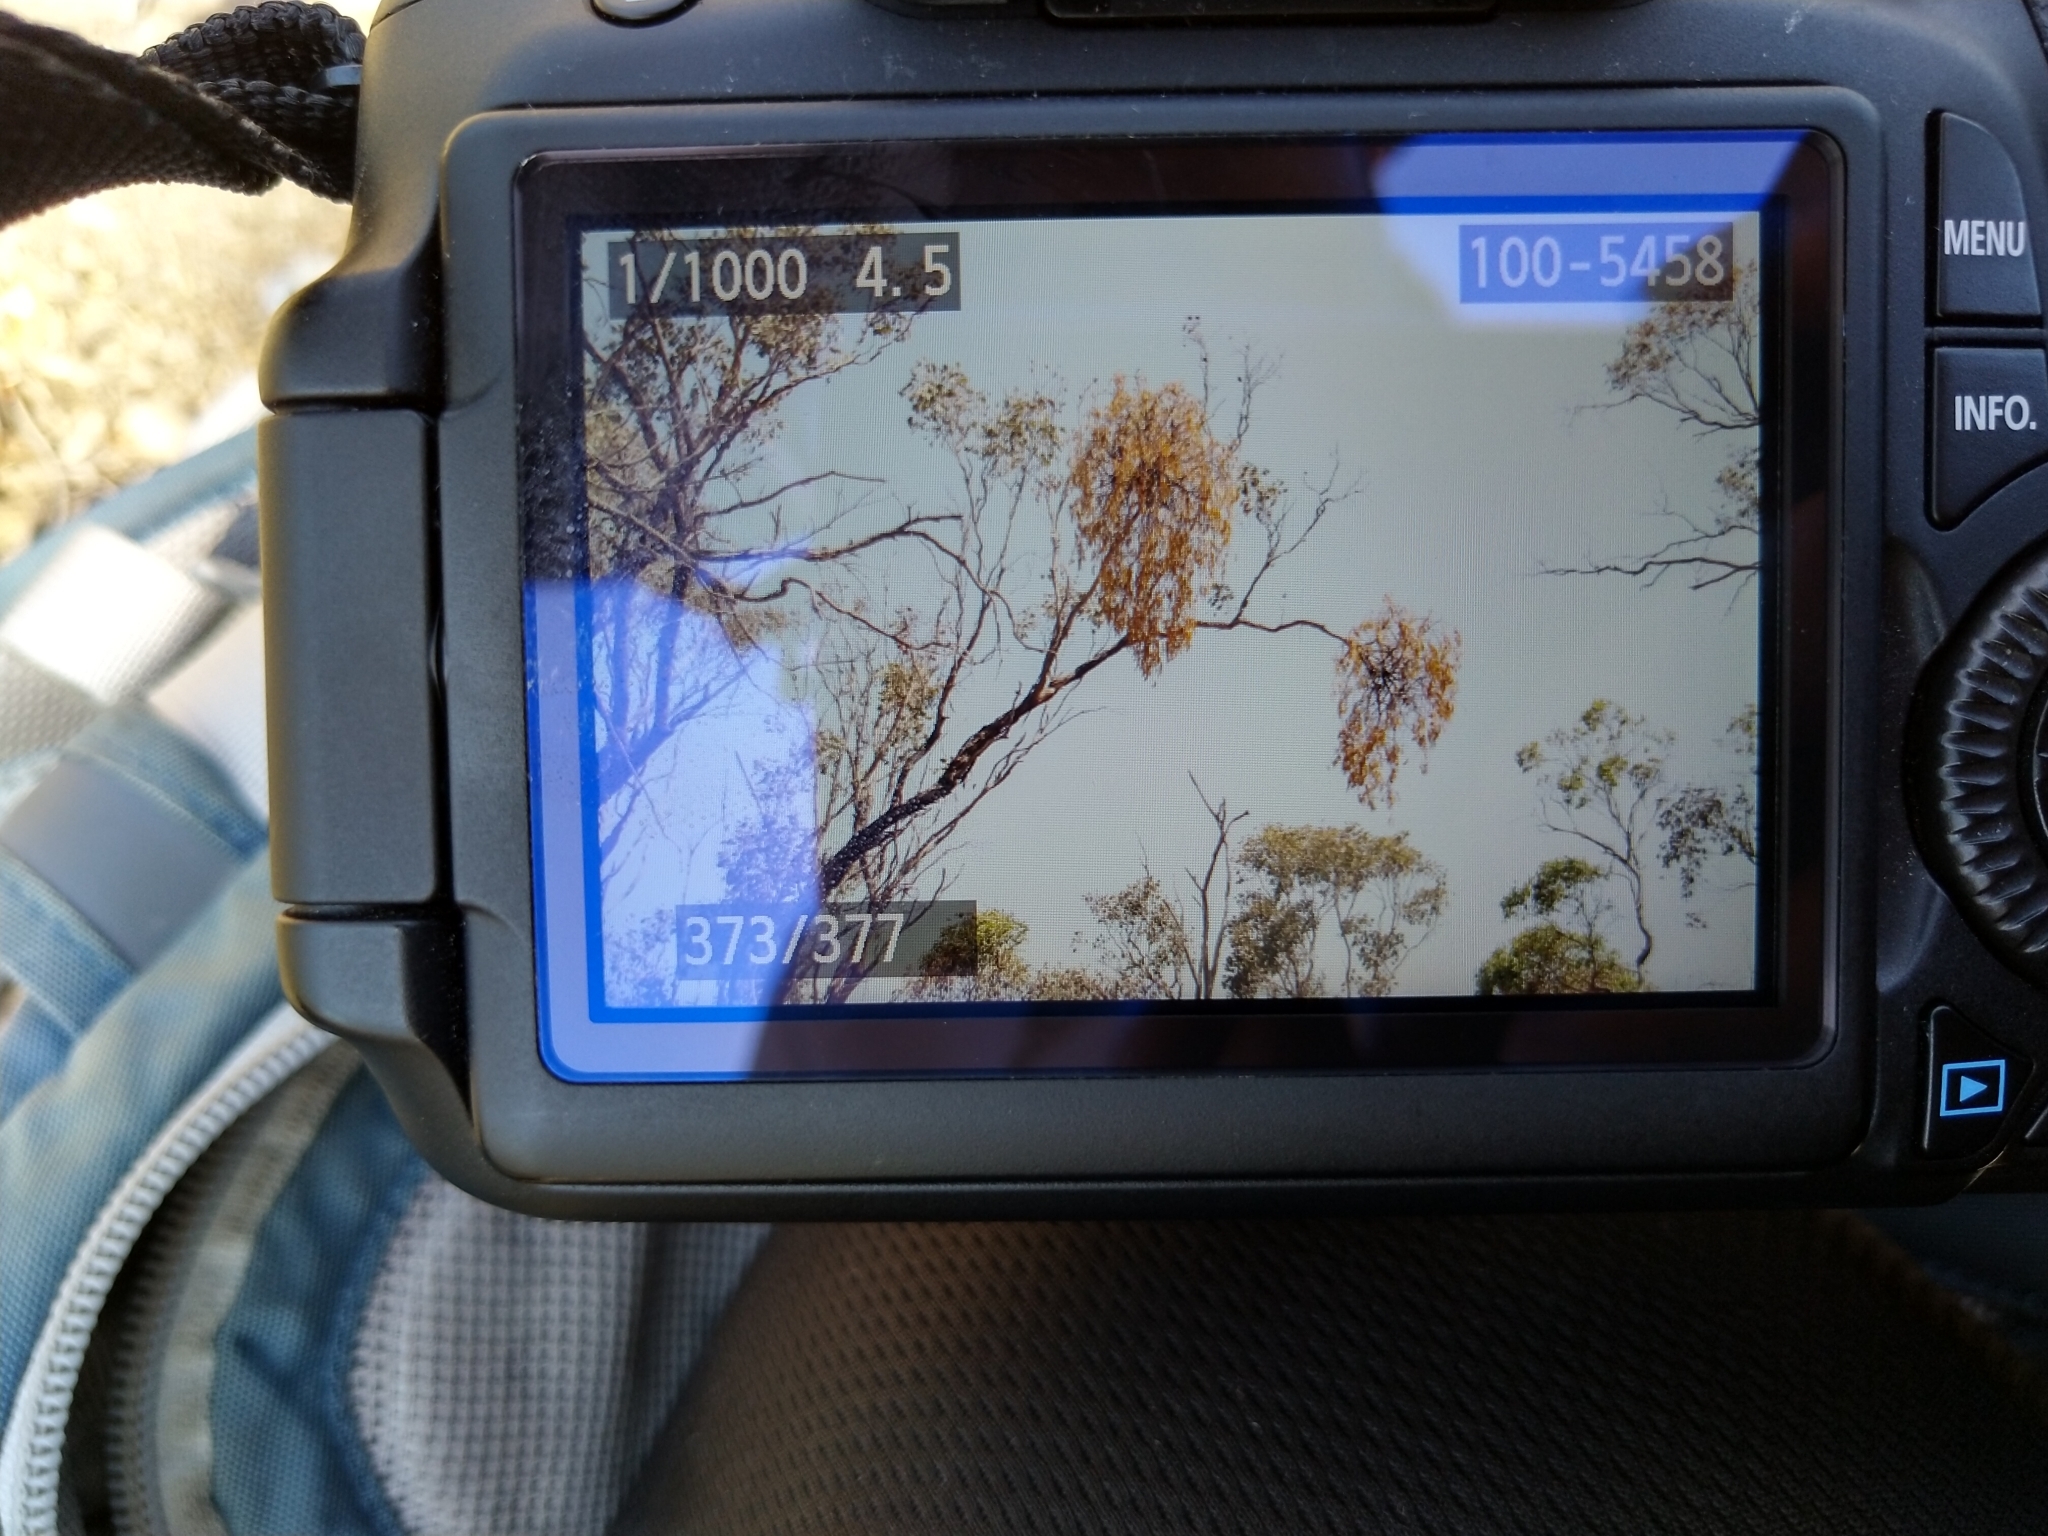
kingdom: Plantae
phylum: Tracheophyta
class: Magnoliopsida
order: Santalales
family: Loranthaceae
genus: Amyema
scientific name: Amyema miquelii
